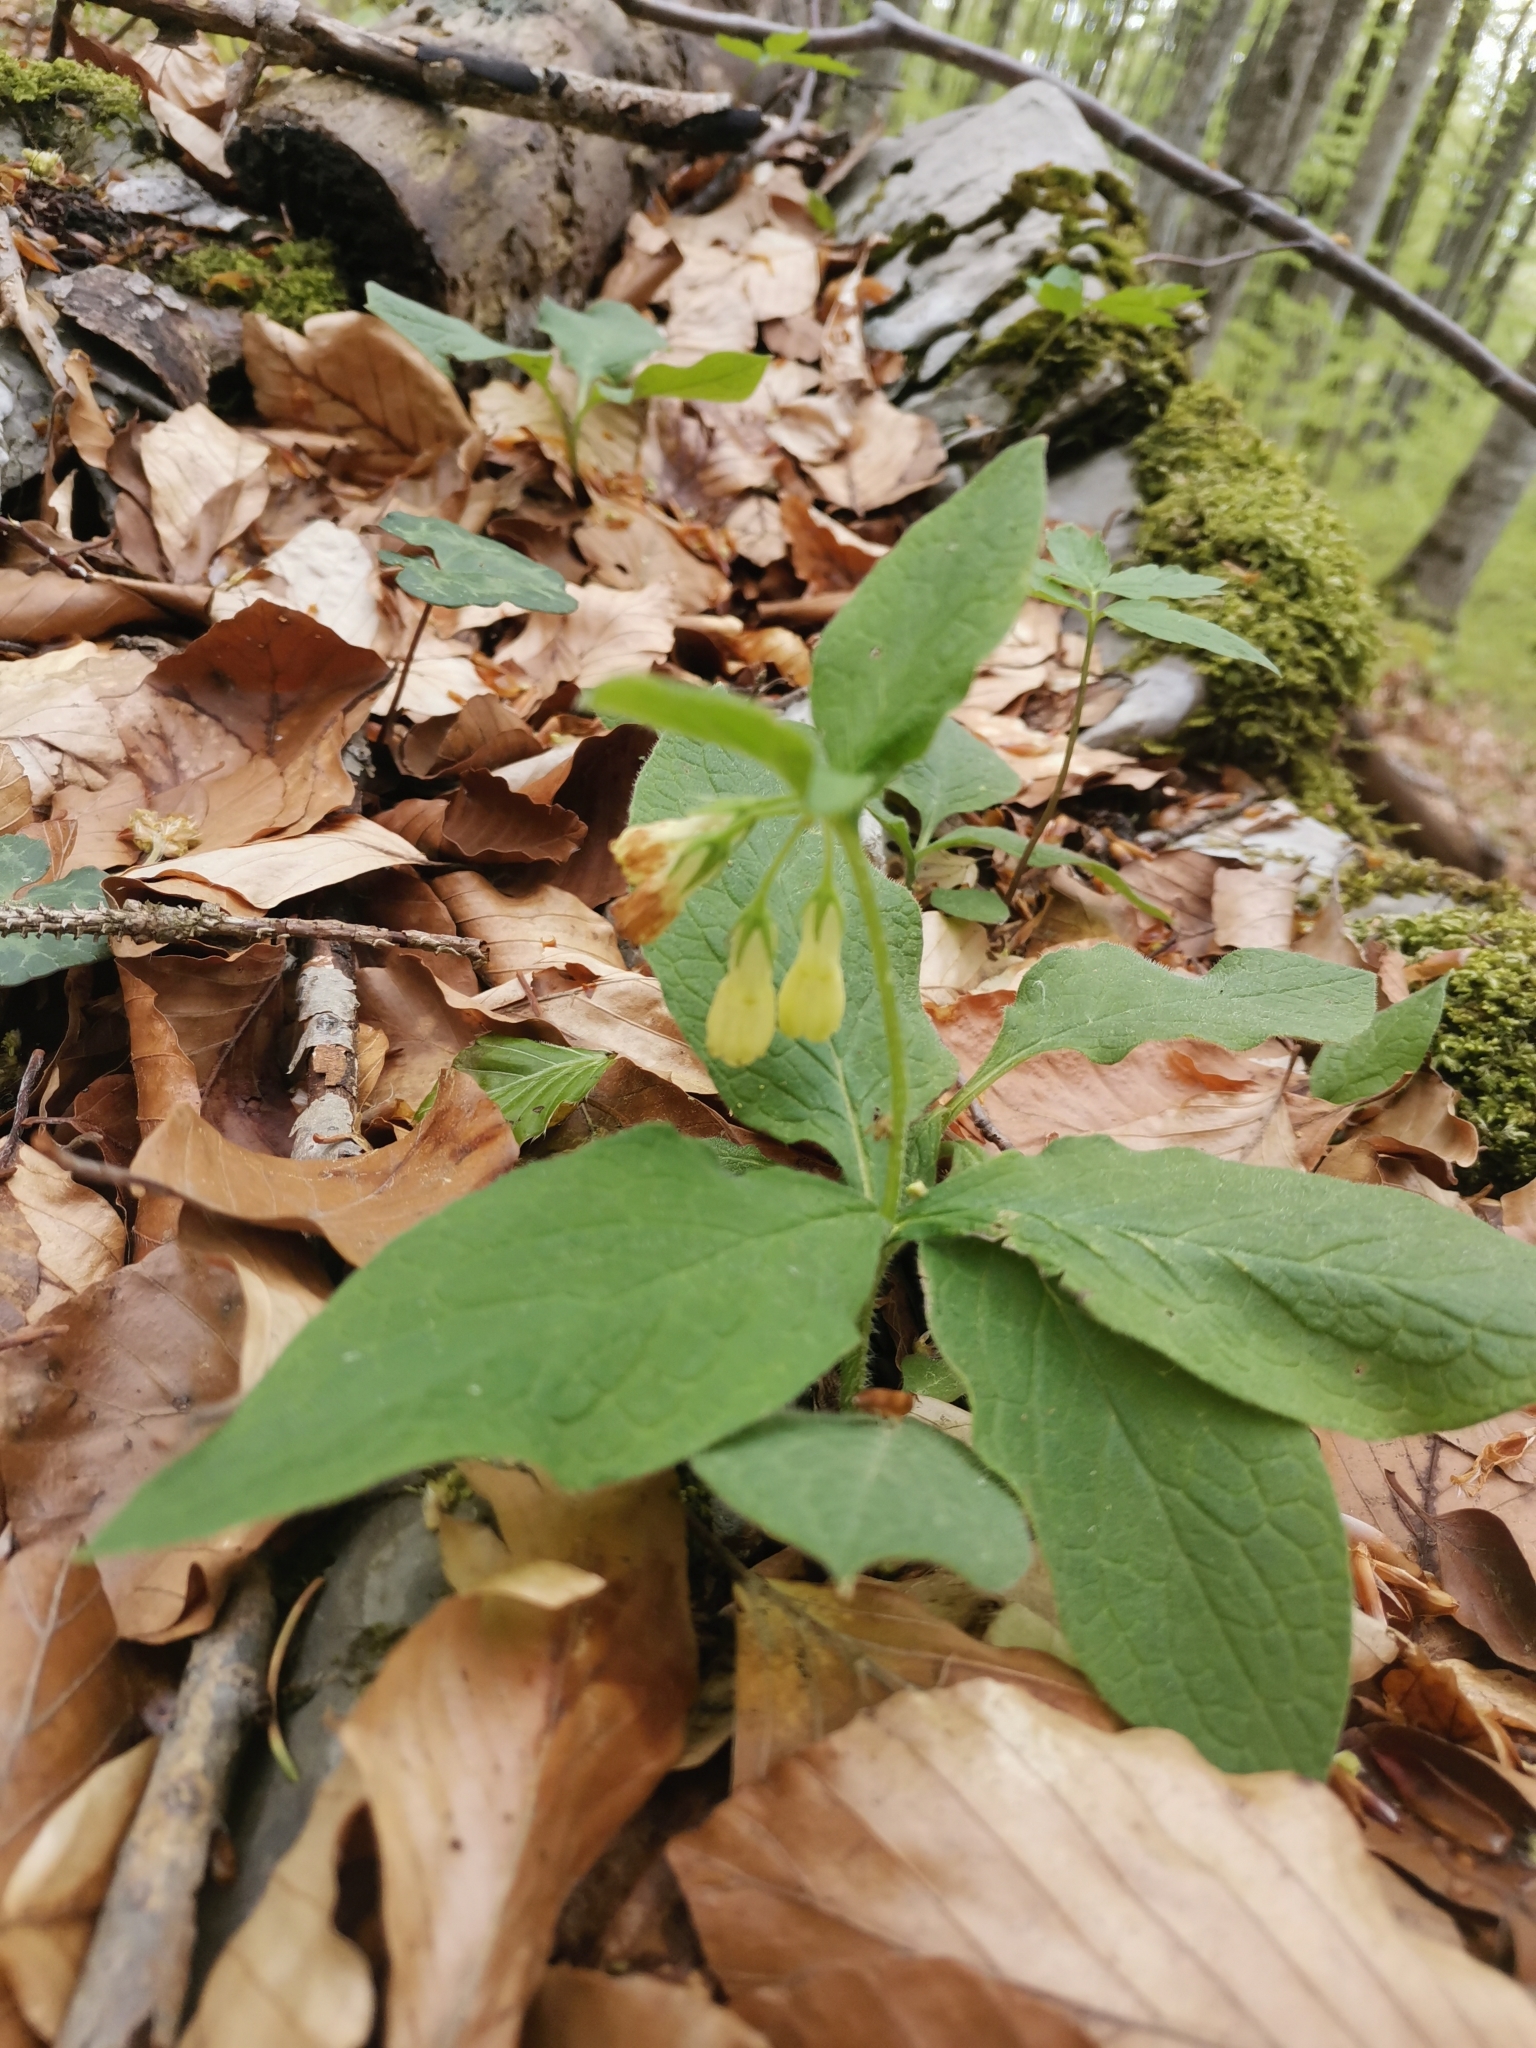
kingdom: Plantae
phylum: Tracheophyta
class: Magnoliopsida
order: Boraginales
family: Boraginaceae
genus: Symphytum
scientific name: Symphytum tuberosum
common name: Tuberous comfrey
